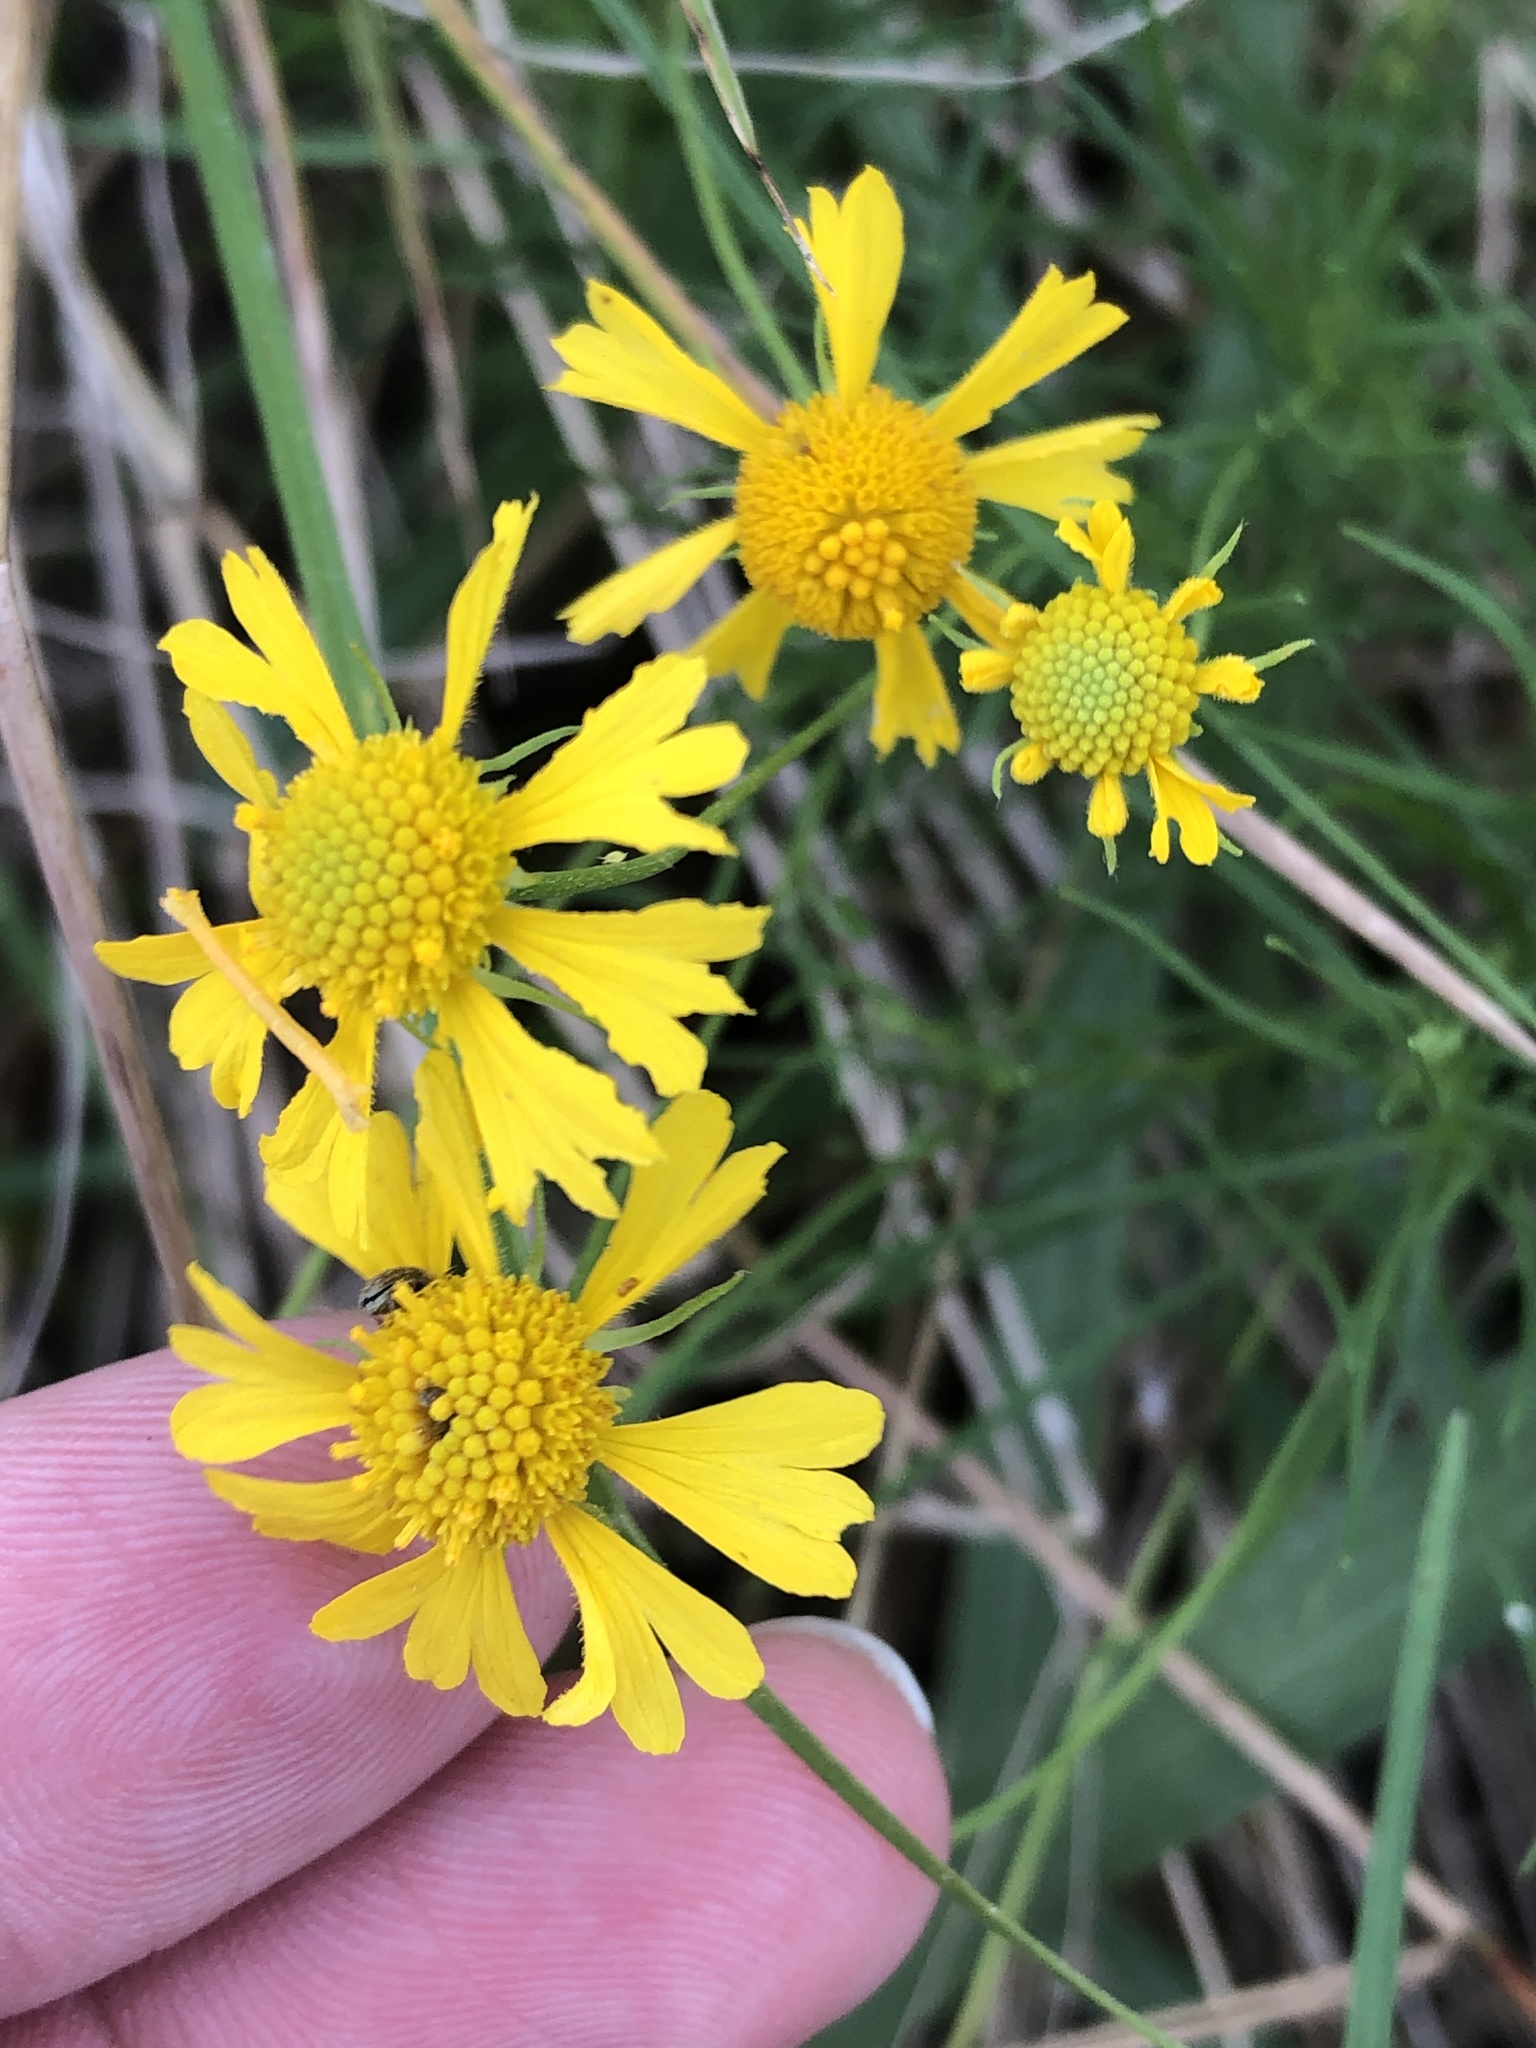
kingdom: Plantae
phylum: Tracheophyta
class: Magnoliopsida
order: Asterales
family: Asteraceae
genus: Helenium
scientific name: Helenium amarum
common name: Bitter sneezeweed
